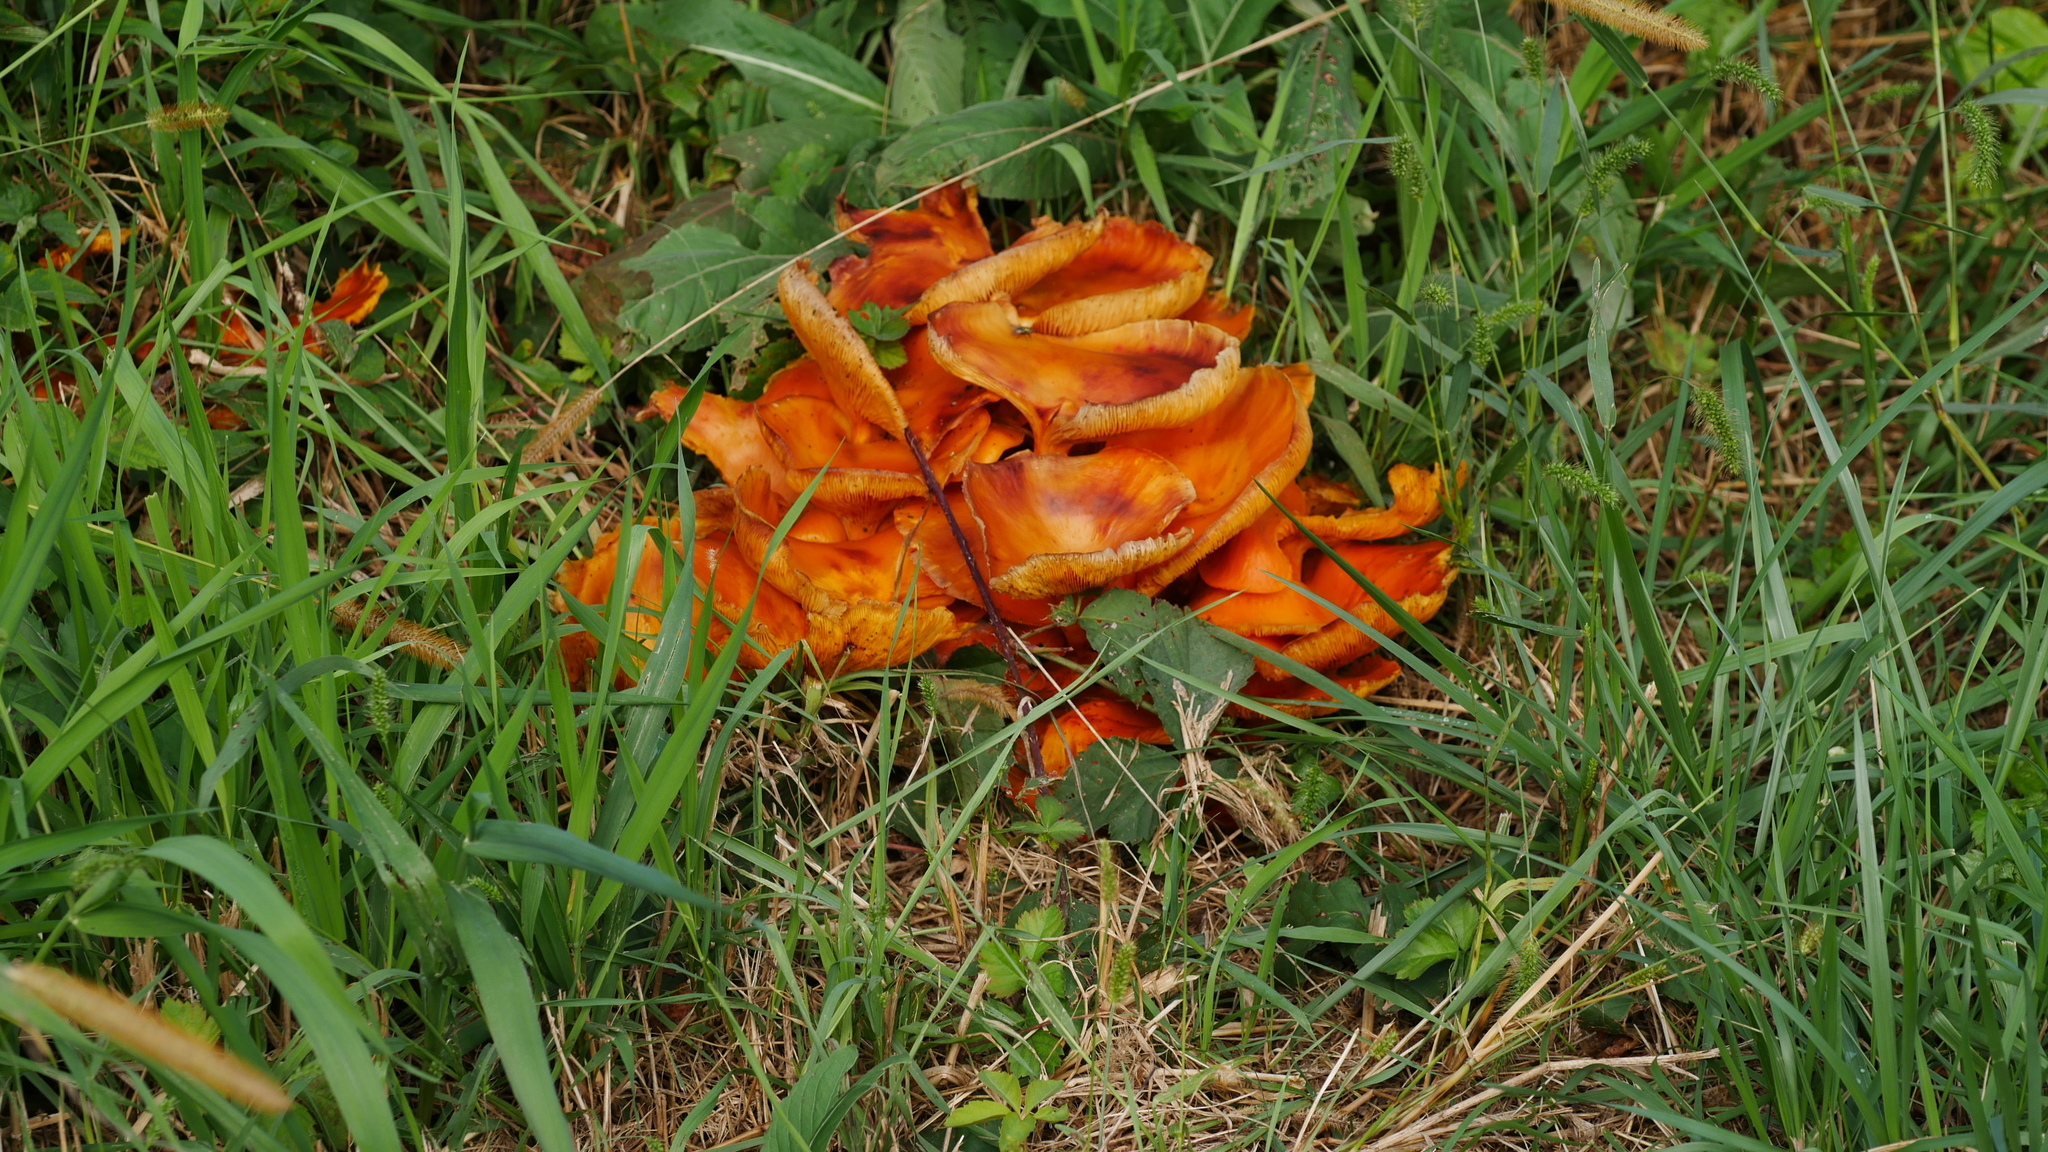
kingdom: Fungi
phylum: Basidiomycota
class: Agaricomycetes
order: Agaricales
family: Omphalotaceae
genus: Omphalotus
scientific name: Omphalotus illudens
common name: Jack o lantern
